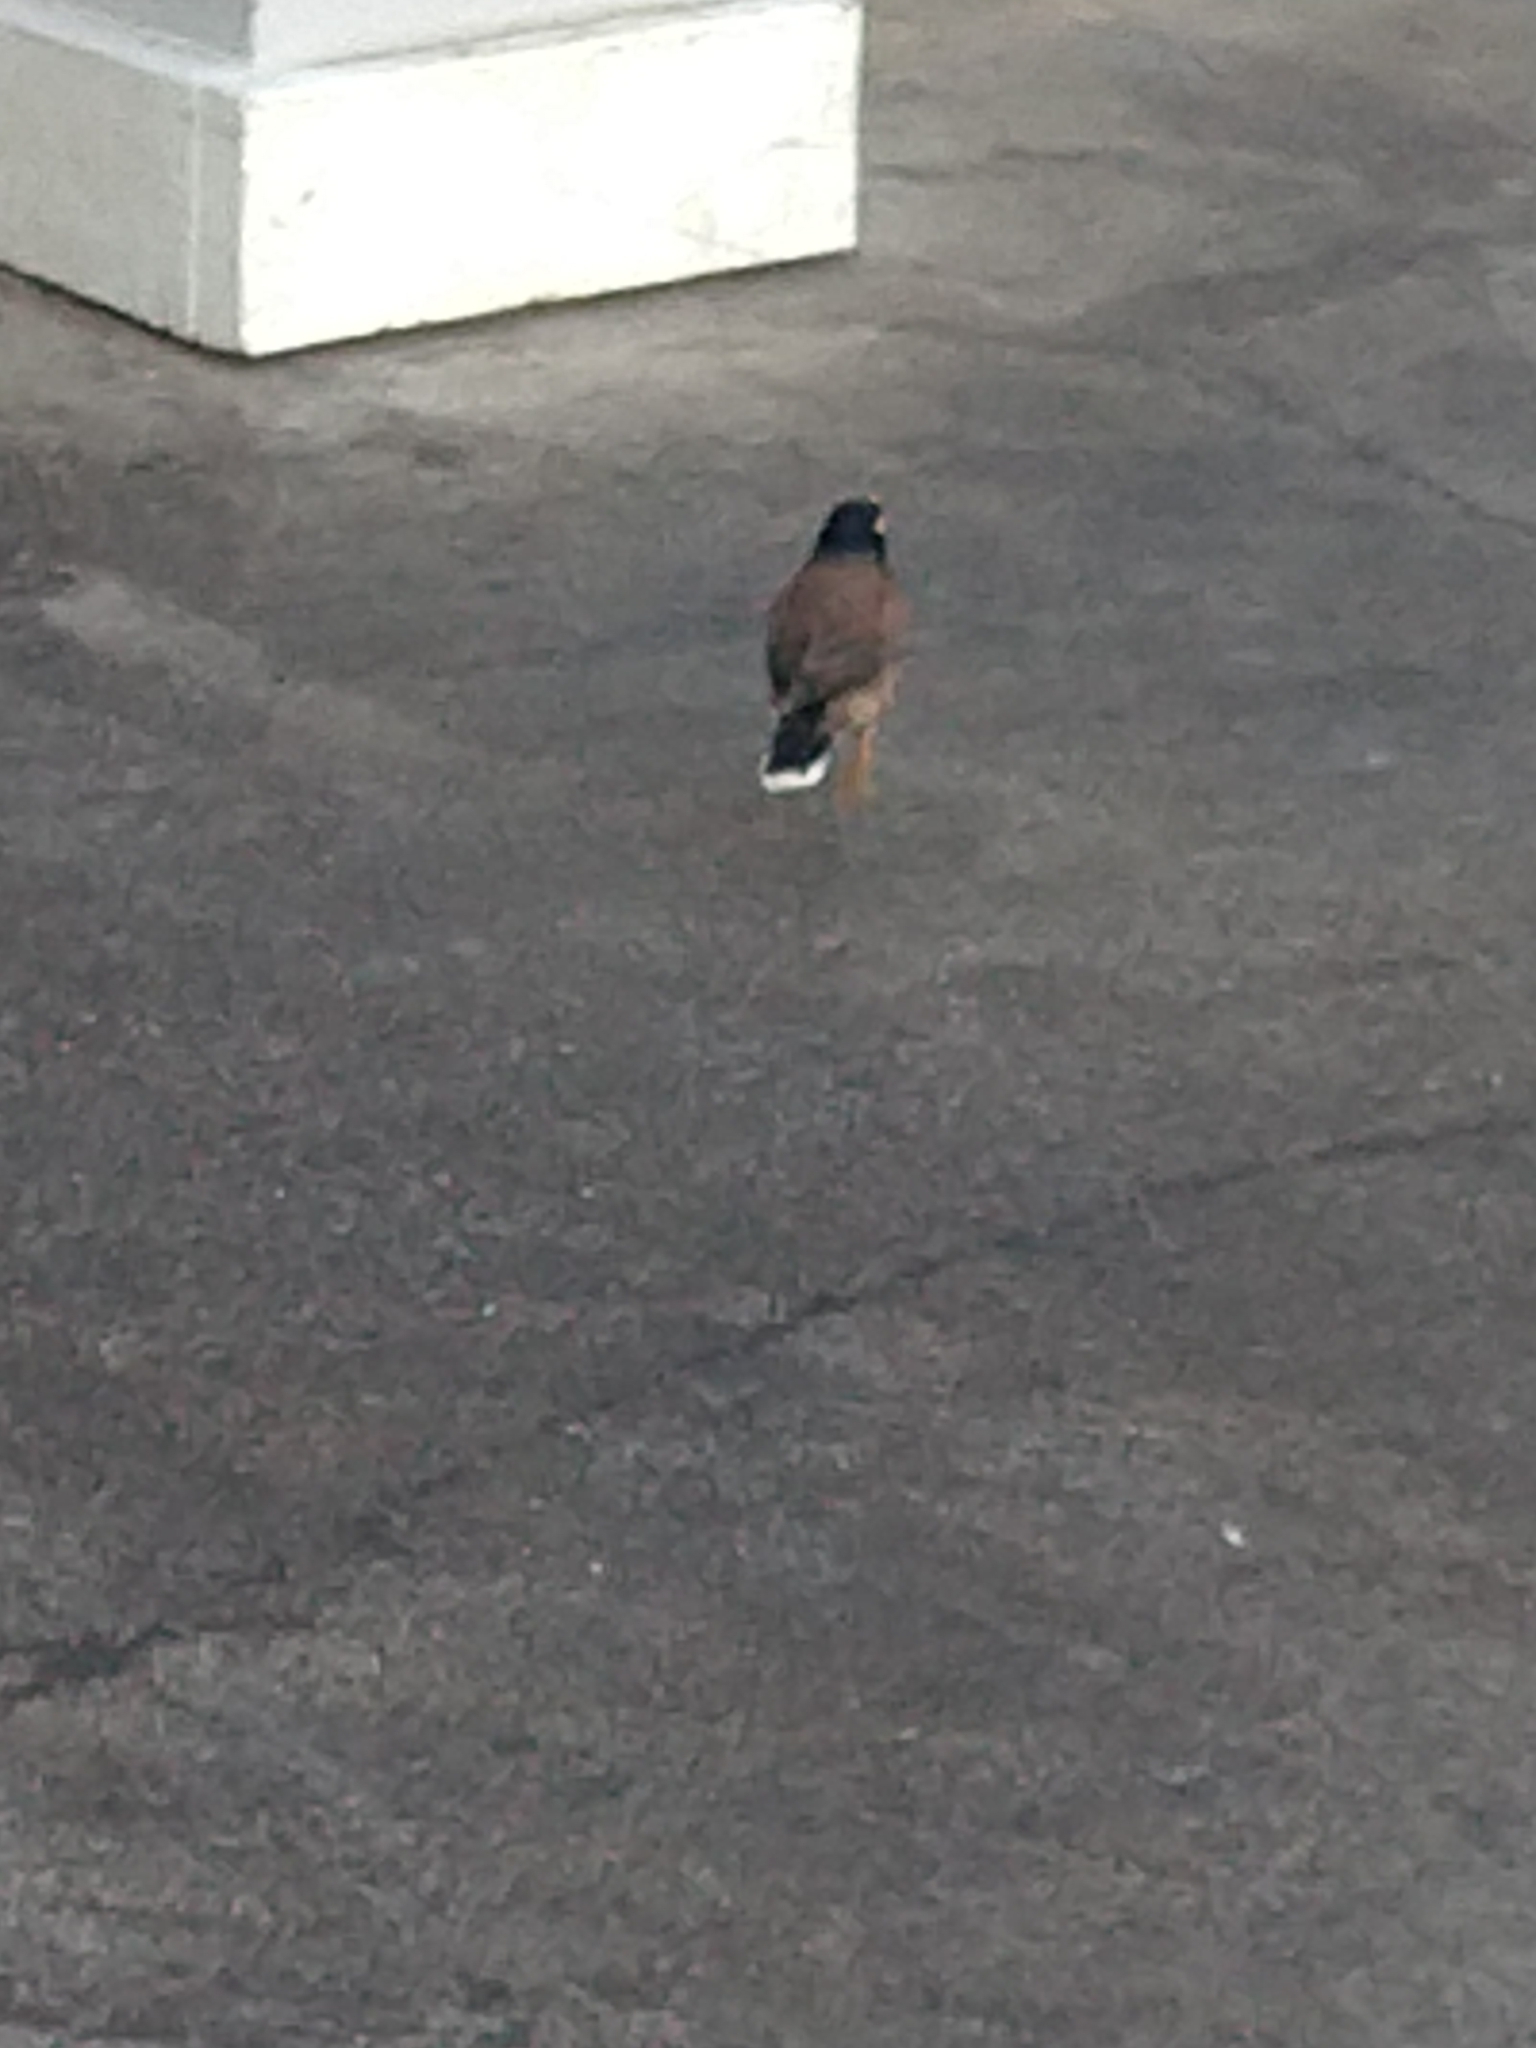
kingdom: Animalia
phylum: Chordata
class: Aves
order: Passeriformes
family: Sturnidae
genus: Acridotheres
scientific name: Acridotheres tristis
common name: Common myna
